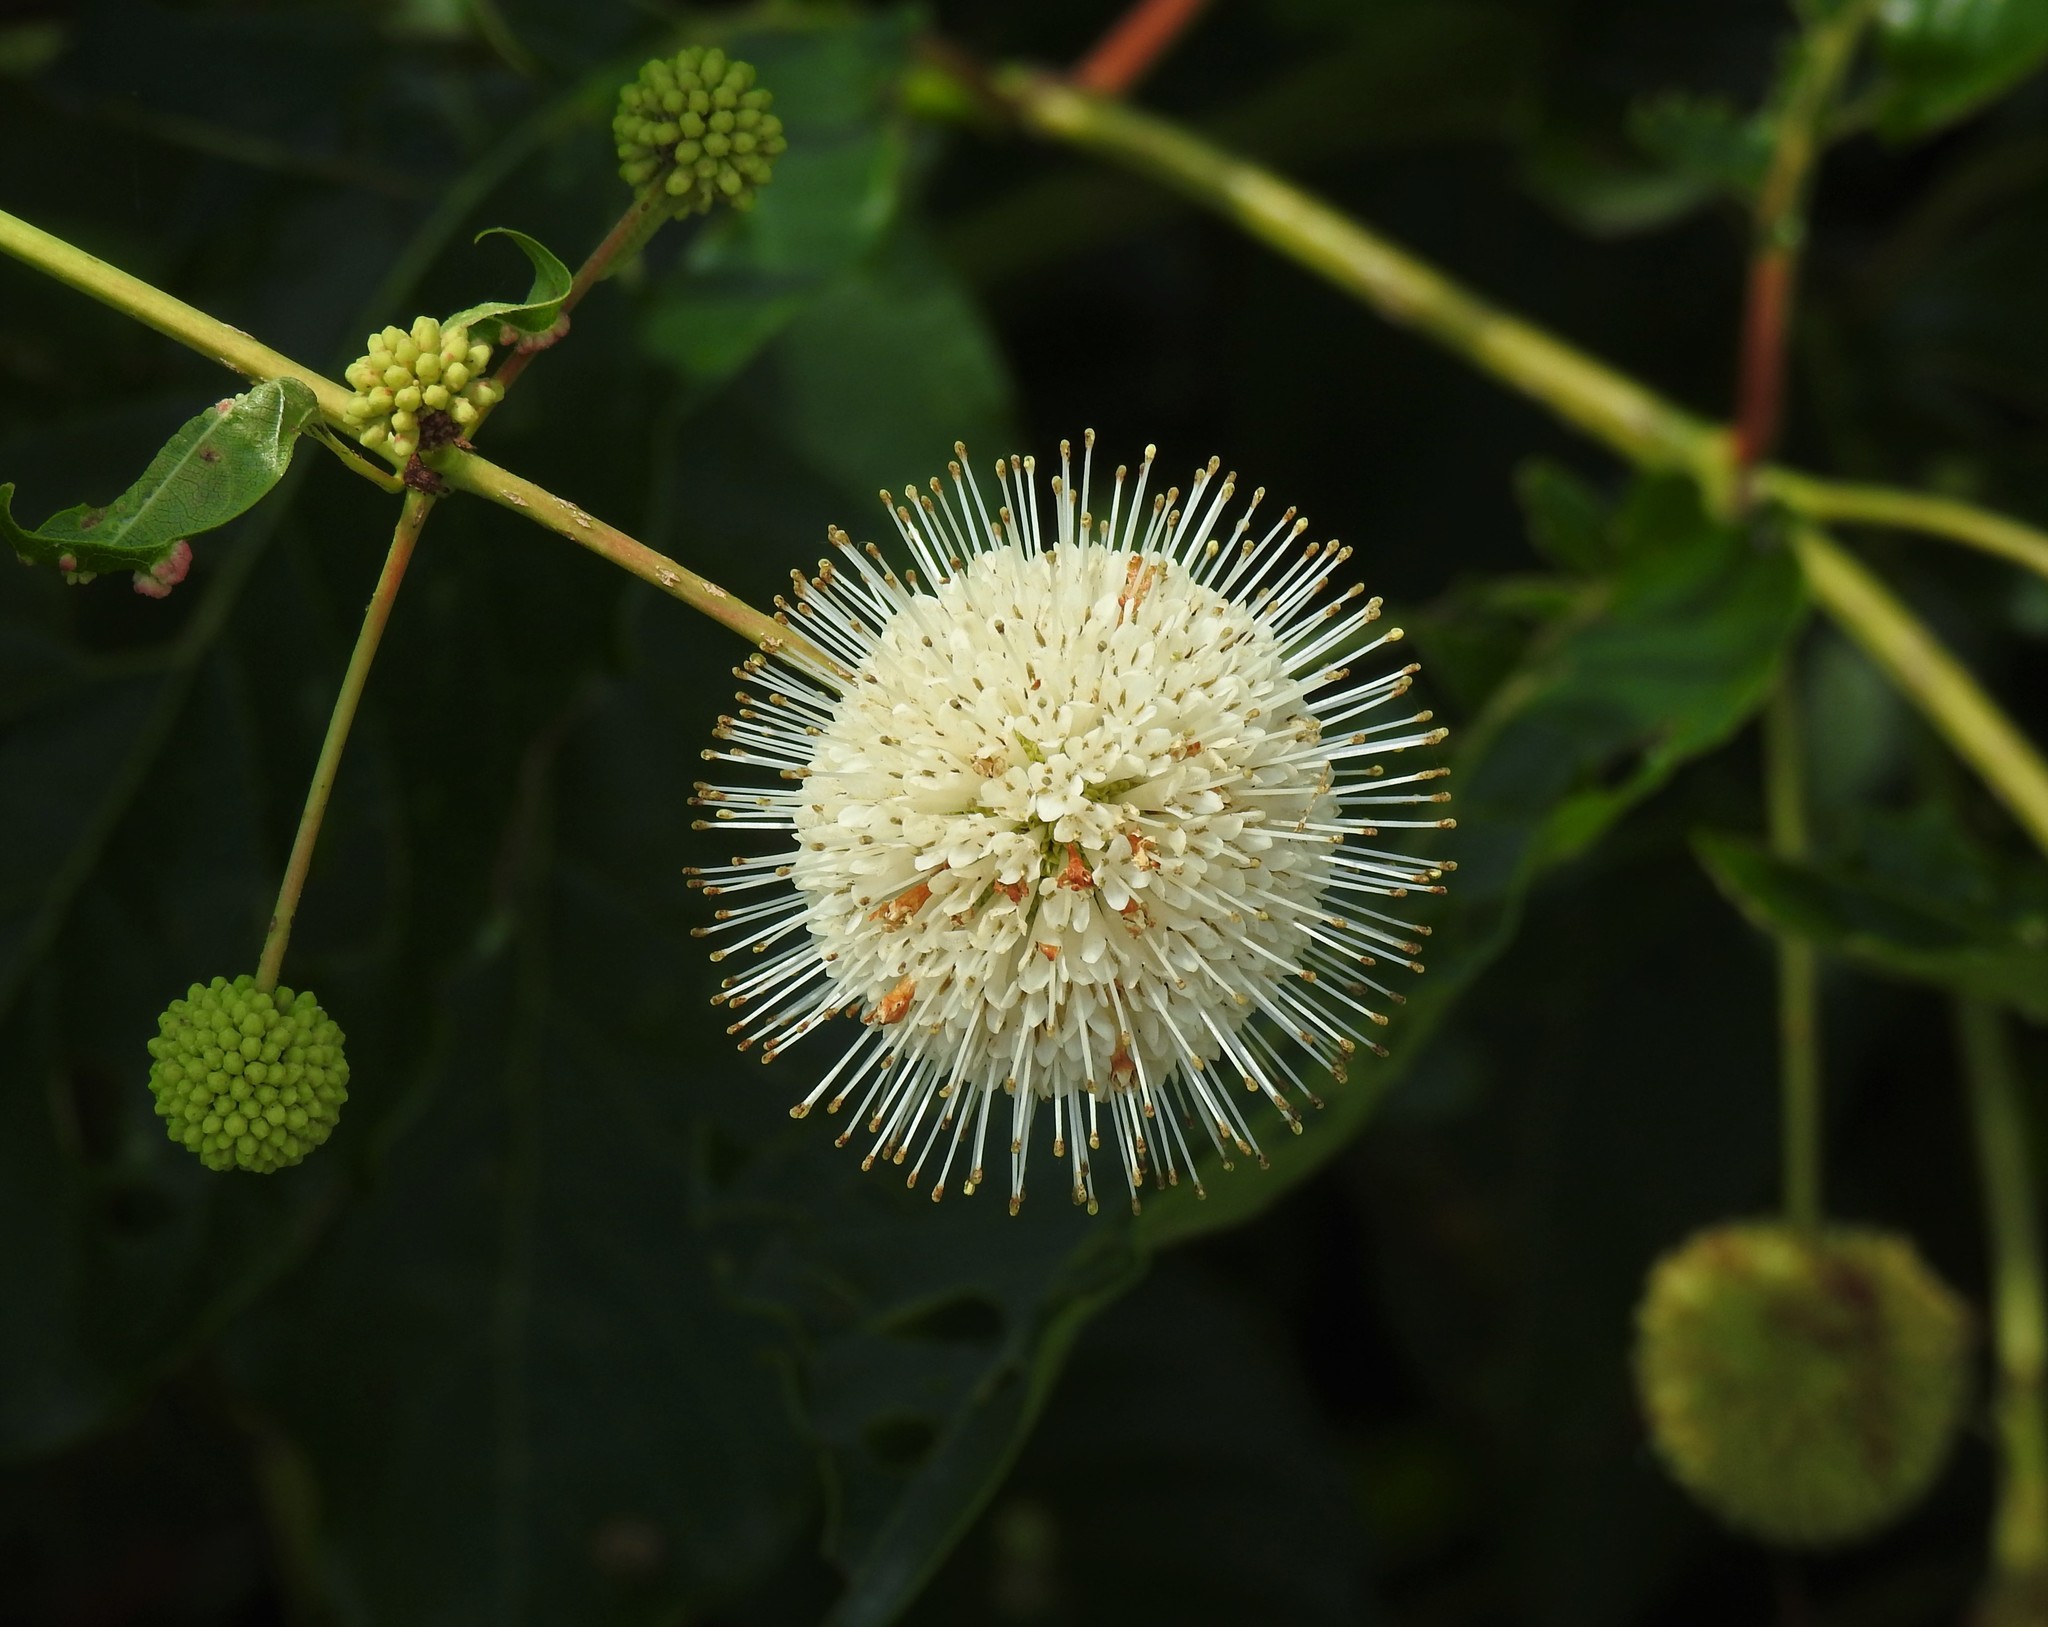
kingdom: Plantae
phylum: Tracheophyta
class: Magnoliopsida
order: Gentianales
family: Rubiaceae
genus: Cephalanthus
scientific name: Cephalanthus occidentalis
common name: Button-willow
